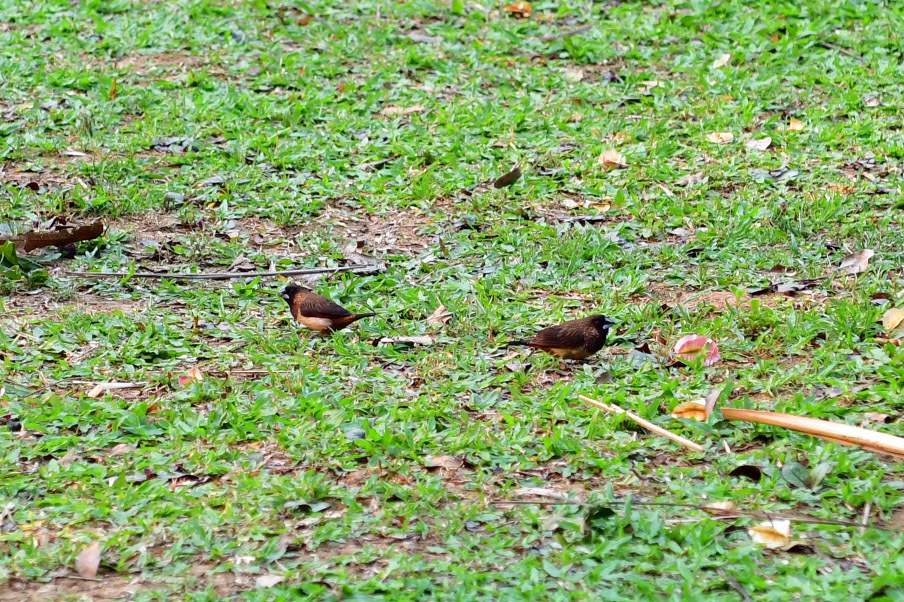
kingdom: Animalia
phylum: Chordata
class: Aves
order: Passeriformes
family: Estrildidae
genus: Lonchura
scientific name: Lonchura striata
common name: White-rumped munia
